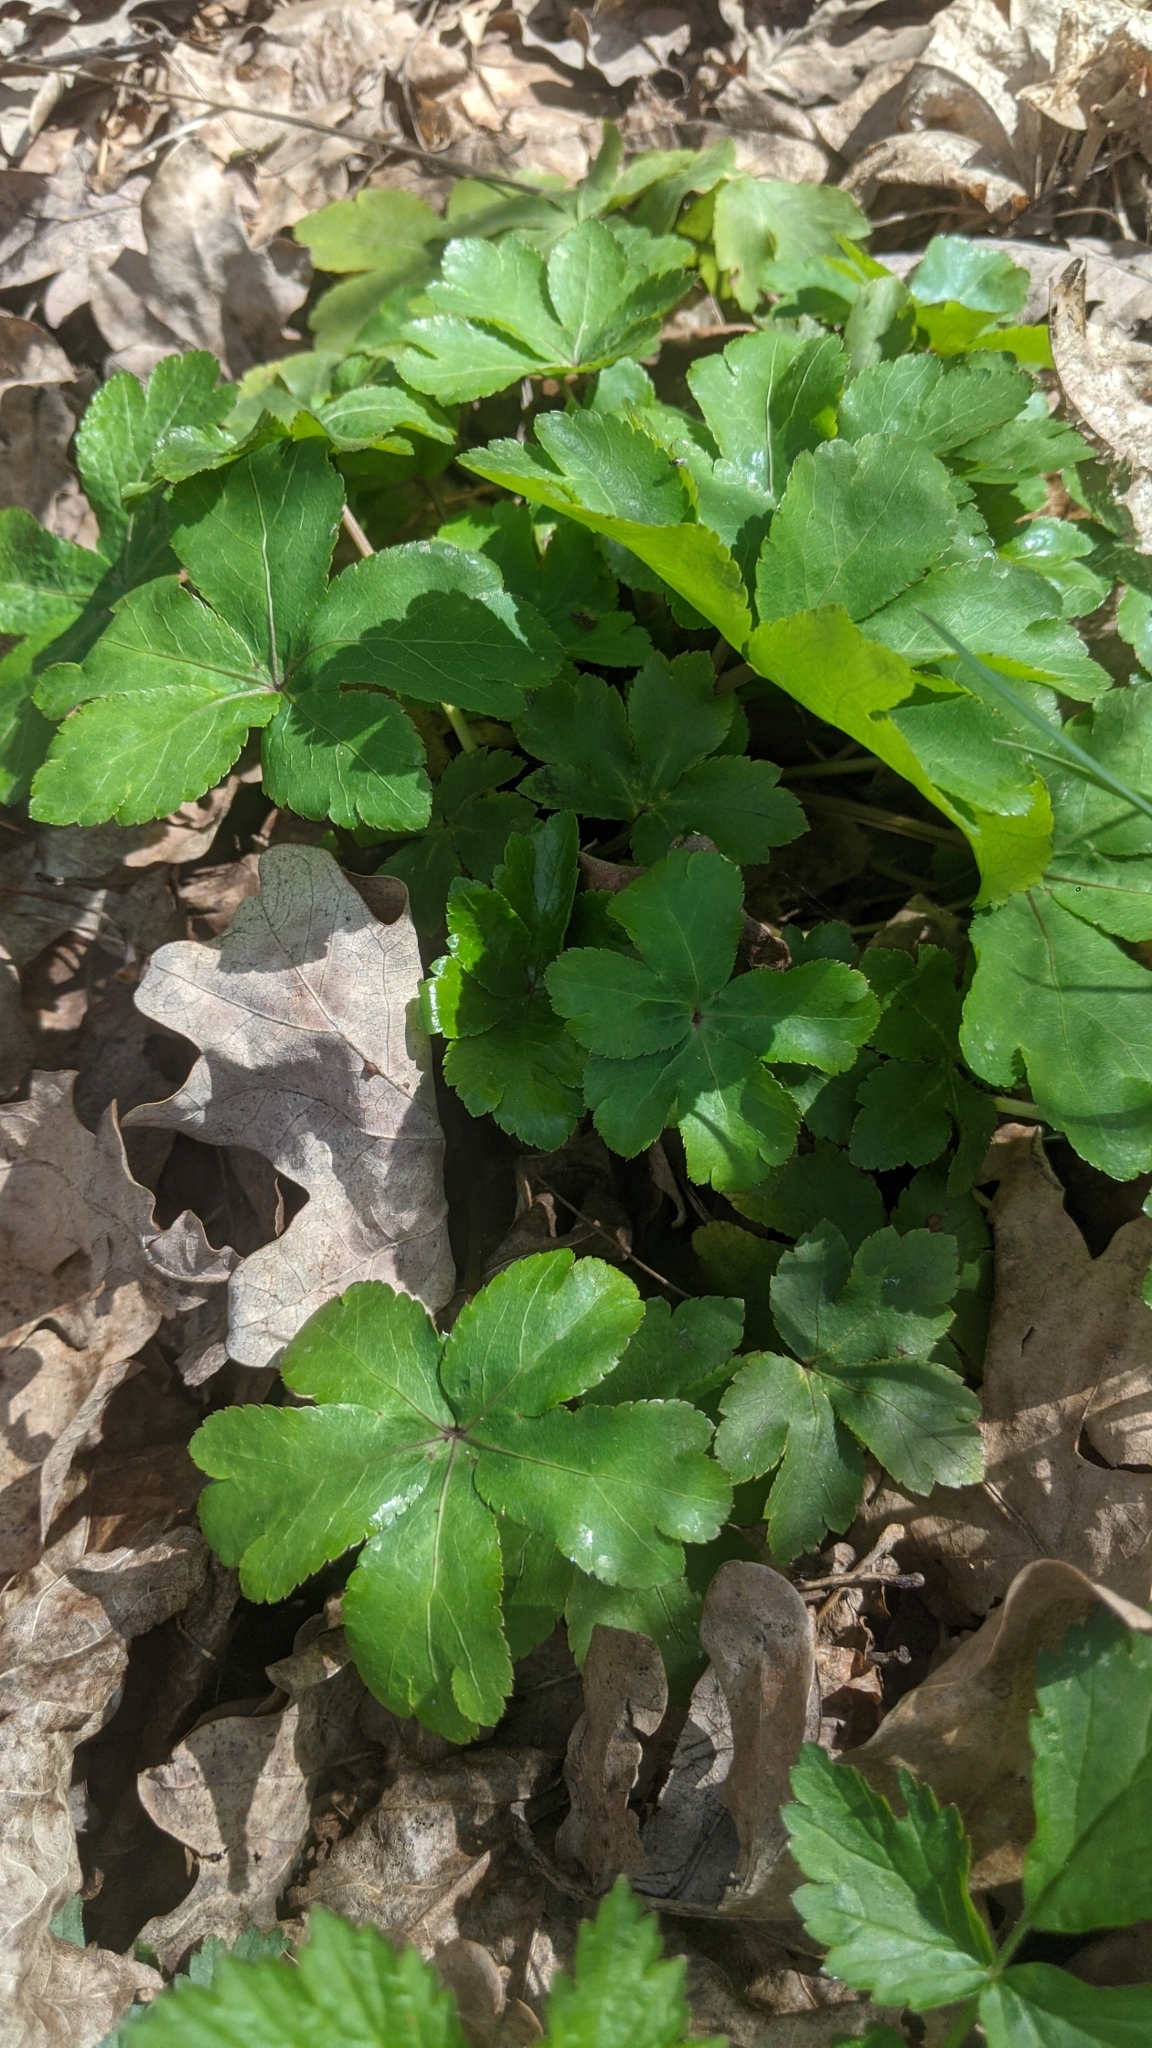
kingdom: Plantae
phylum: Tracheophyta
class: Magnoliopsida
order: Apiales
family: Apiaceae
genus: Sanicula
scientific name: Sanicula europaea
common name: Sanicle
